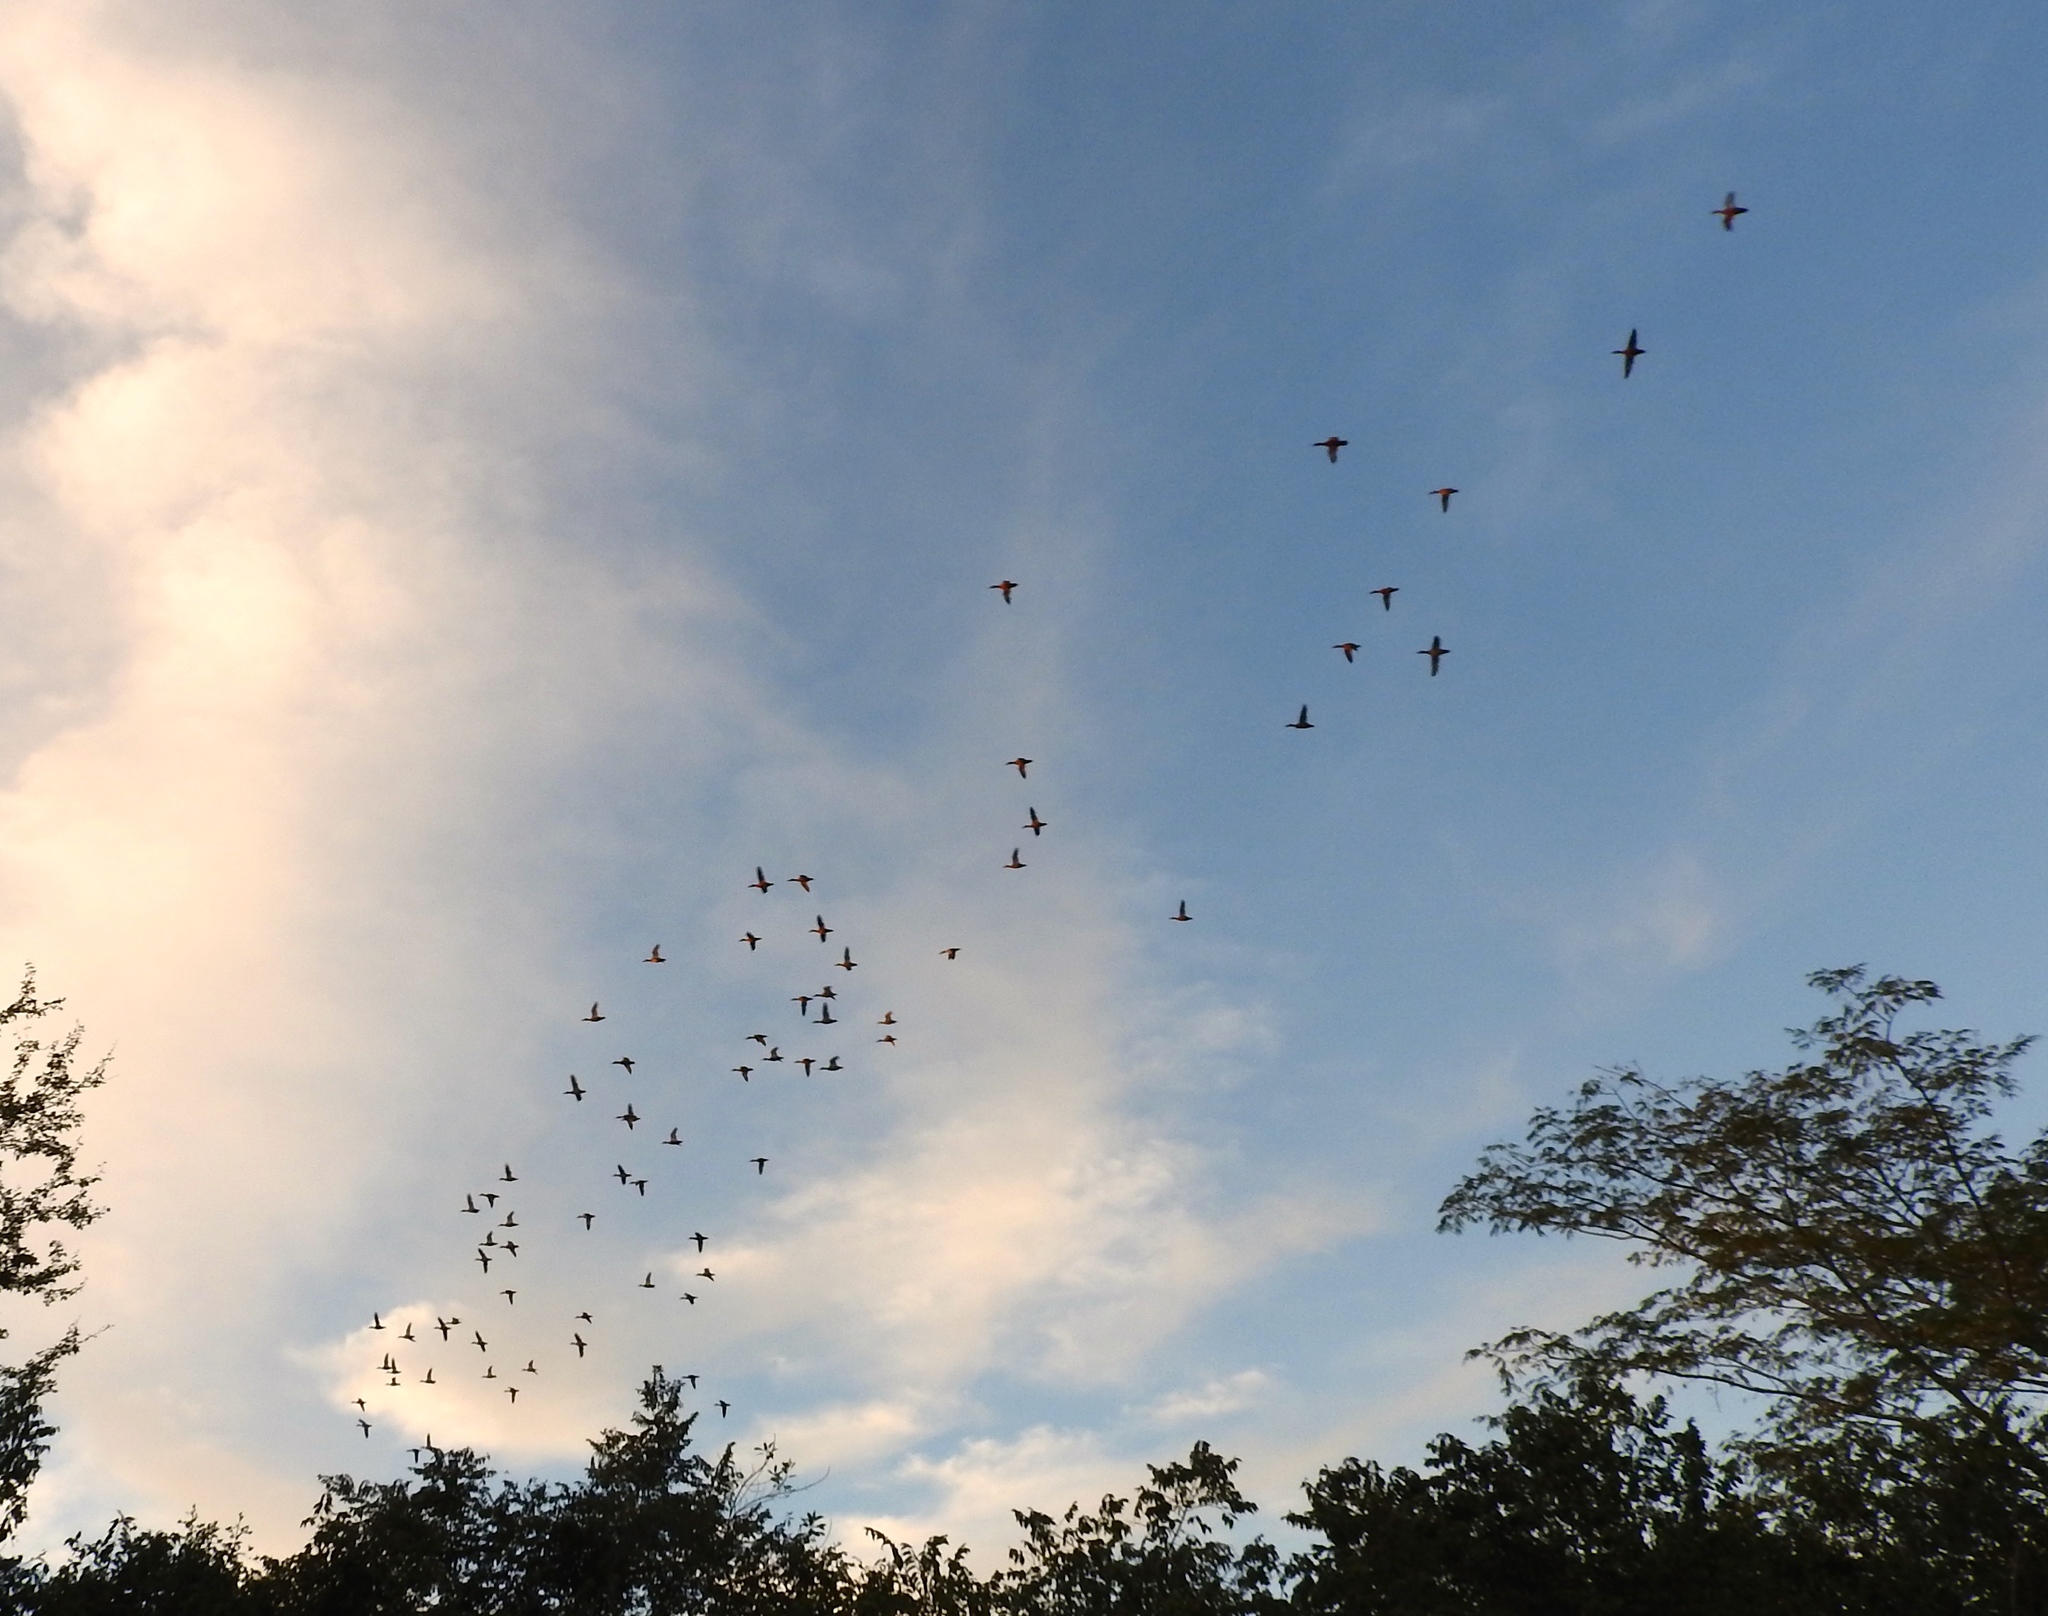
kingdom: Animalia
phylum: Chordata
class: Aves
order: Anseriformes
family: Anatidae
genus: Spatula
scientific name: Spatula
